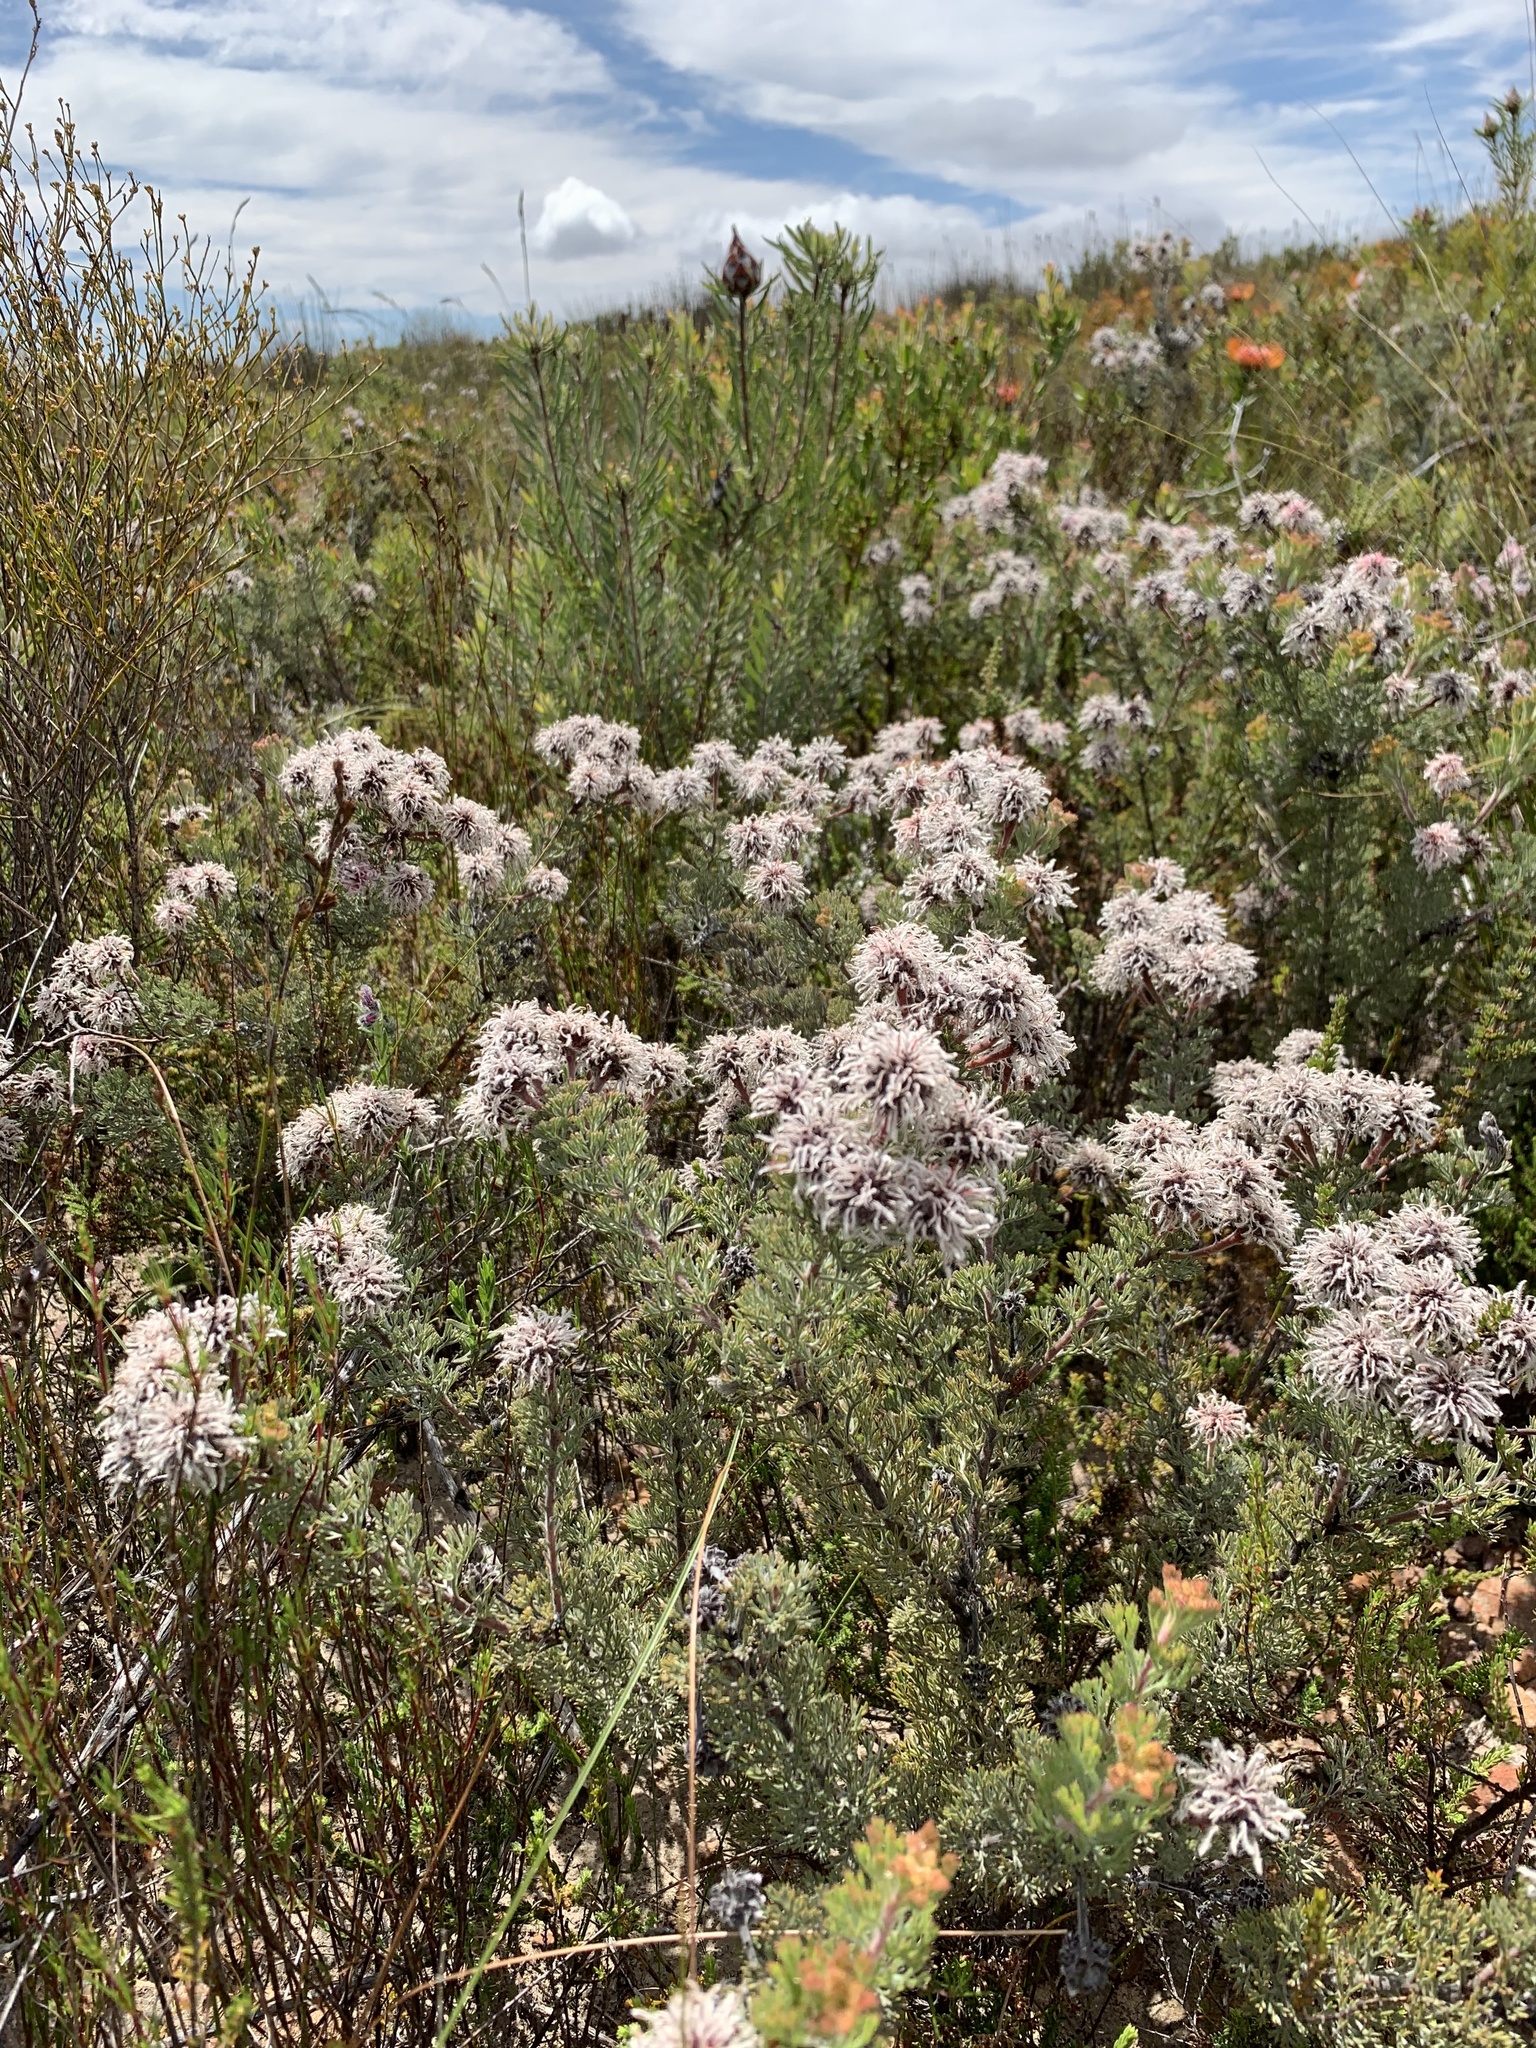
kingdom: Plantae
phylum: Tracheophyta
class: Magnoliopsida
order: Proteales
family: Proteaceae
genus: Serruria
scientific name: Serruria aitonii
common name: Marshmallow spiderhead
